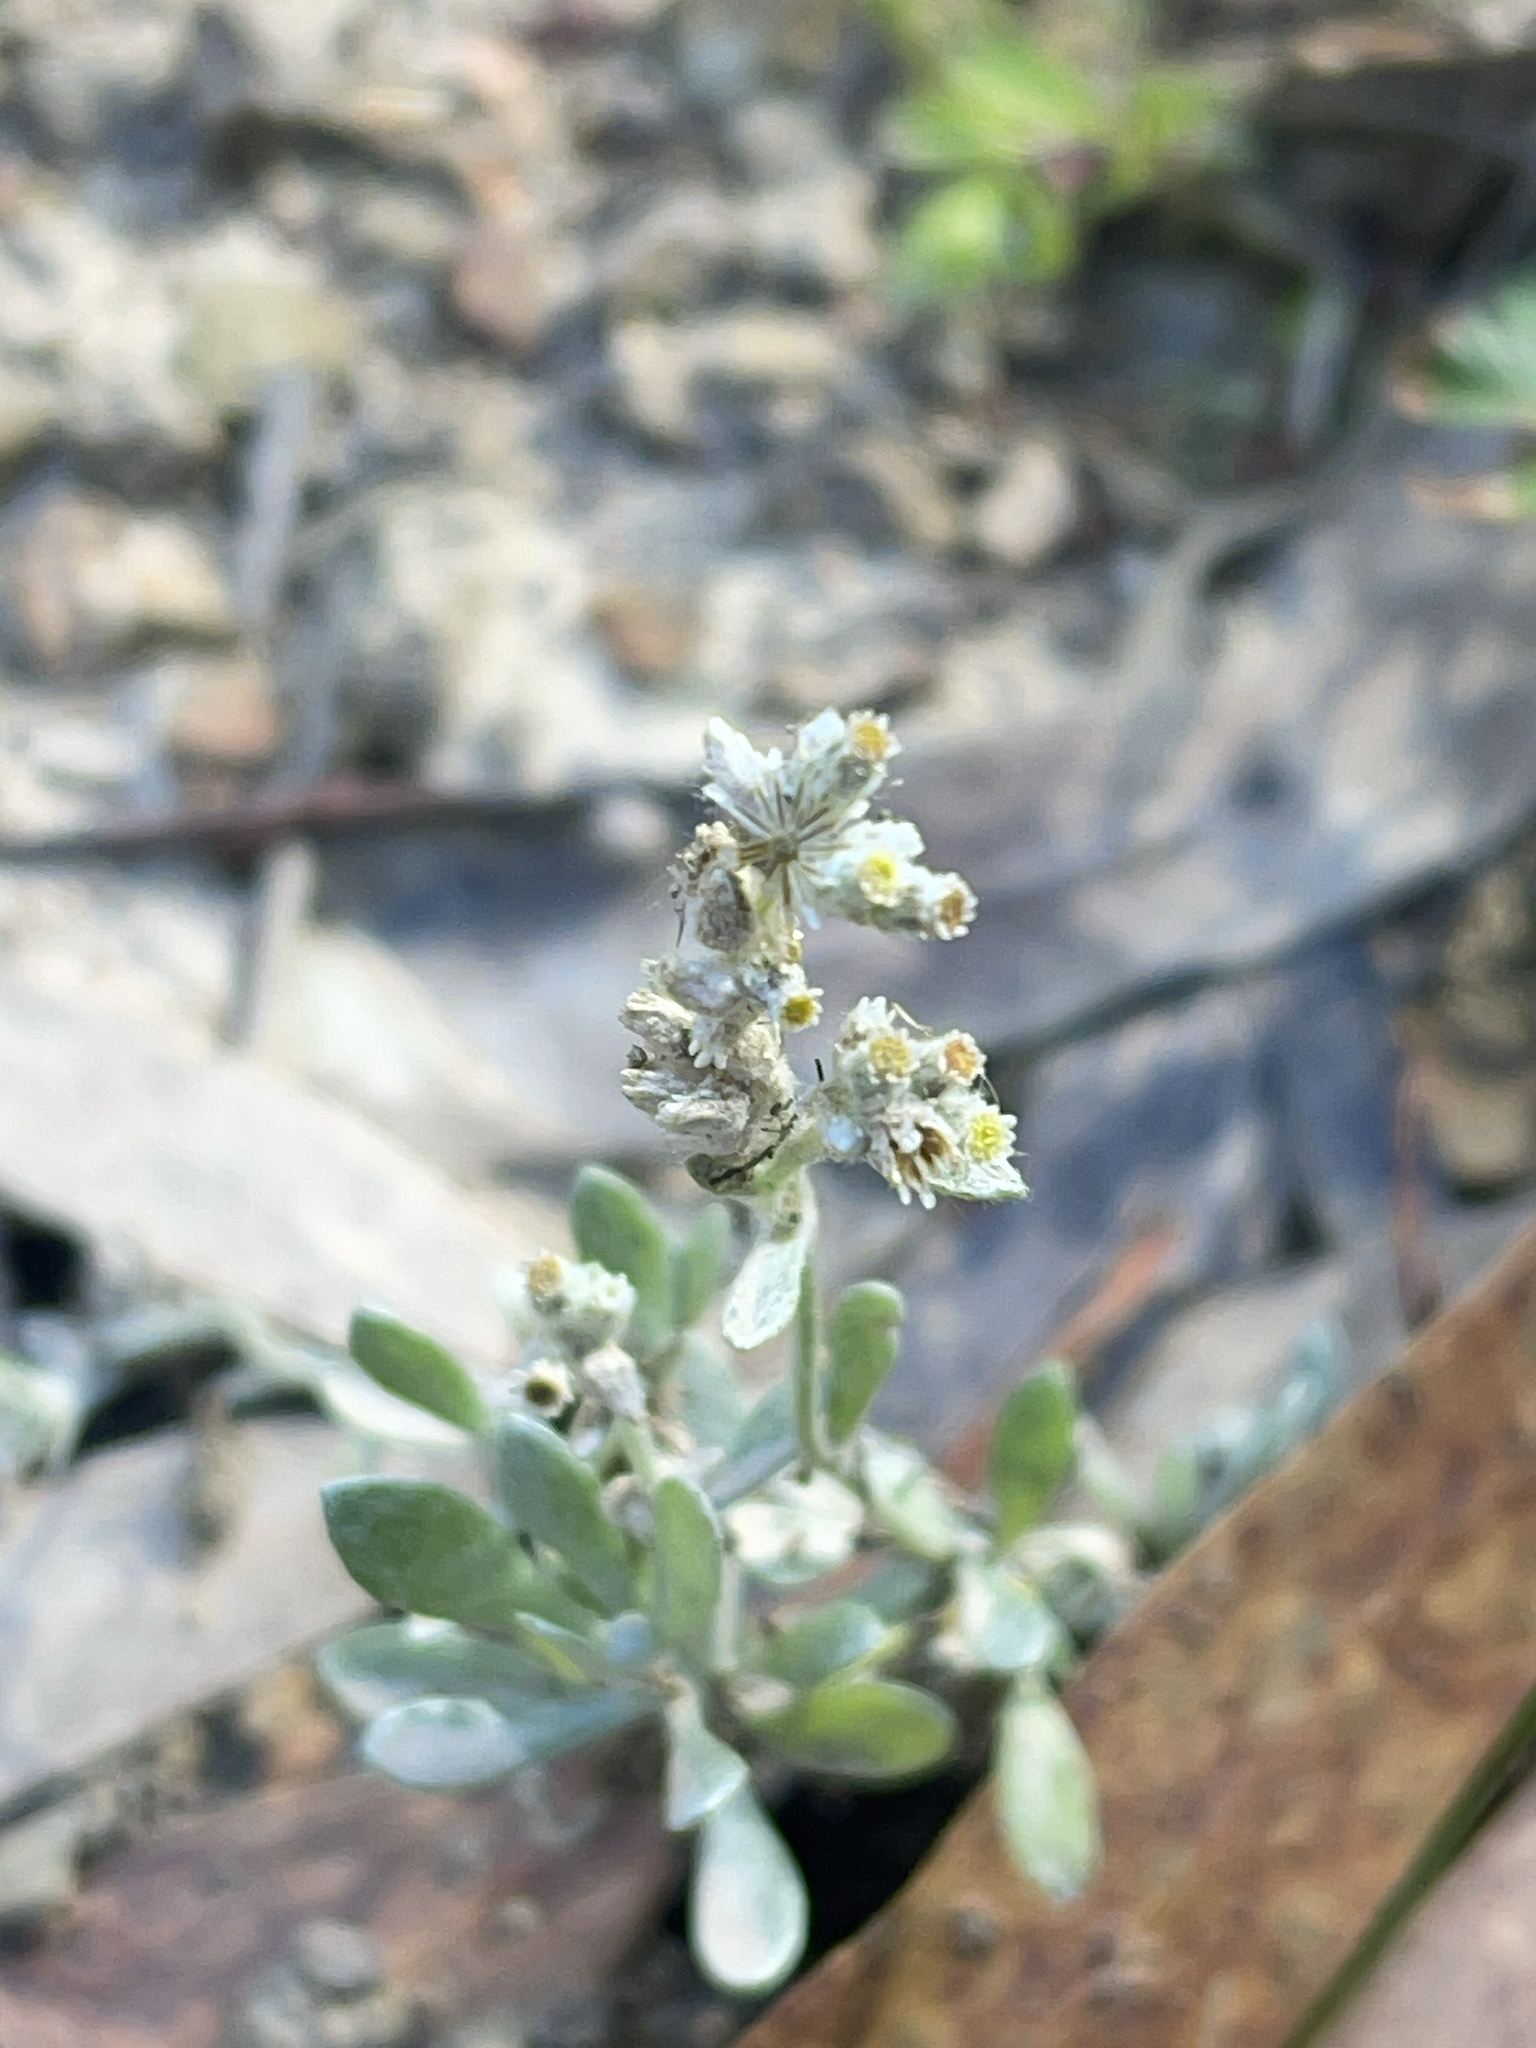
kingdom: Plantae
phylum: Tracheophyta
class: Magnoliopsida
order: Asterales
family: Asteraceae
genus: Vellereophyton
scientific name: Vellereophyton dealbatum
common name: White-cudweed
